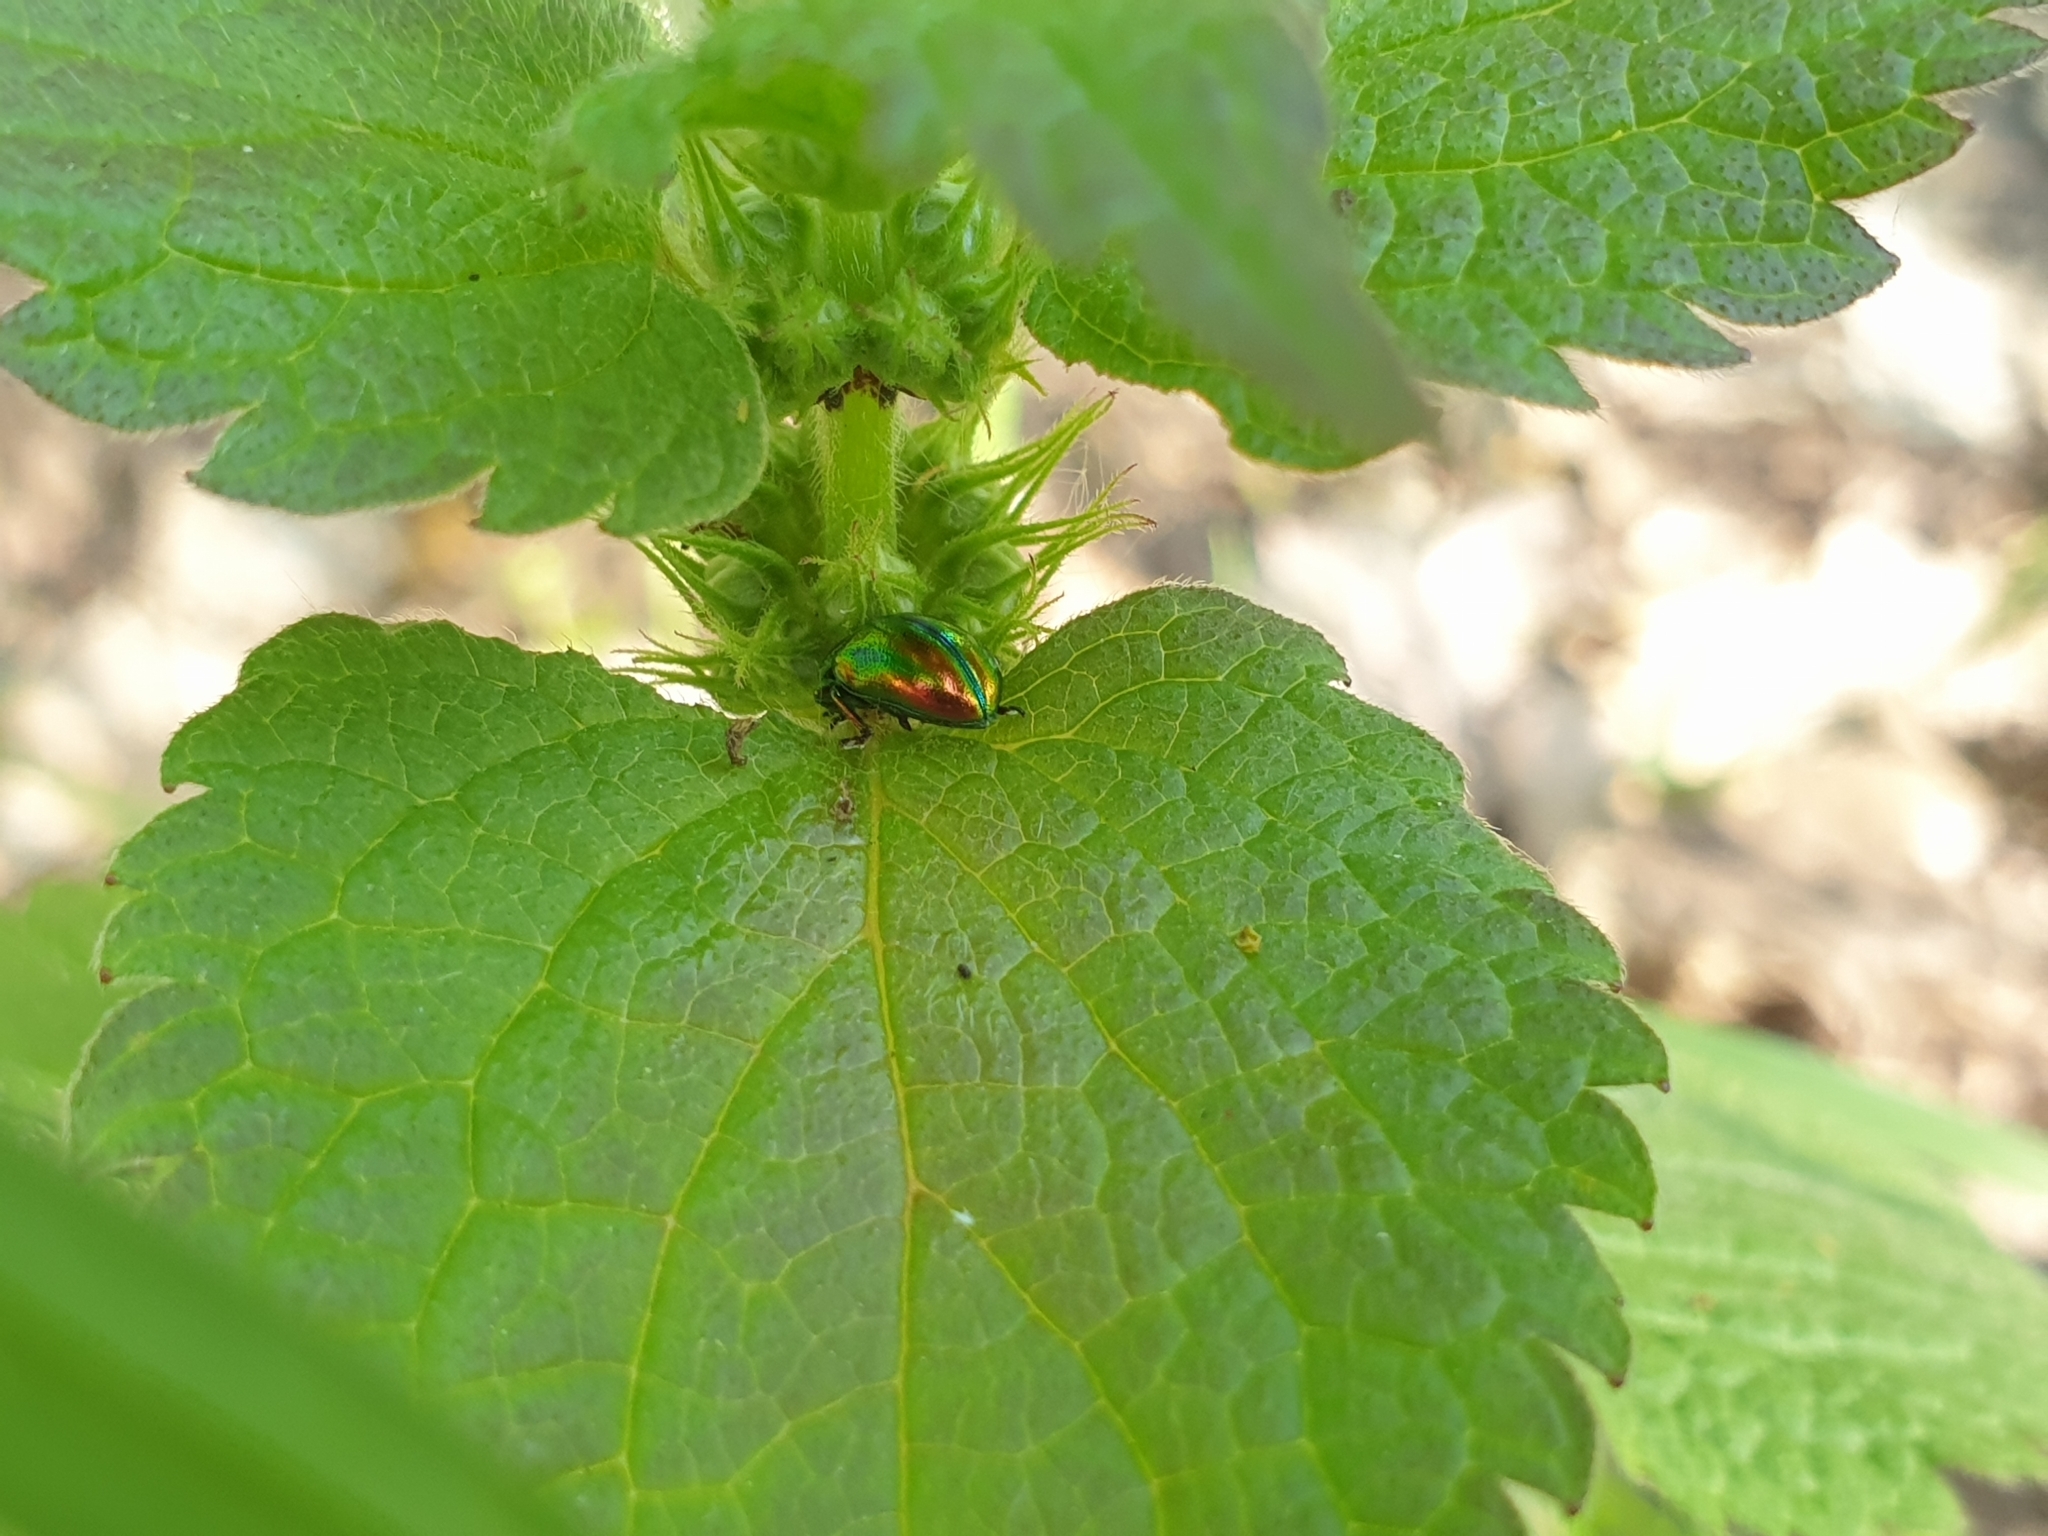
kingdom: Animalia
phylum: Arthropoda
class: Insecta
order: Coleoptera
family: Chrysomelidae
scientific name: Chrysomelidae
